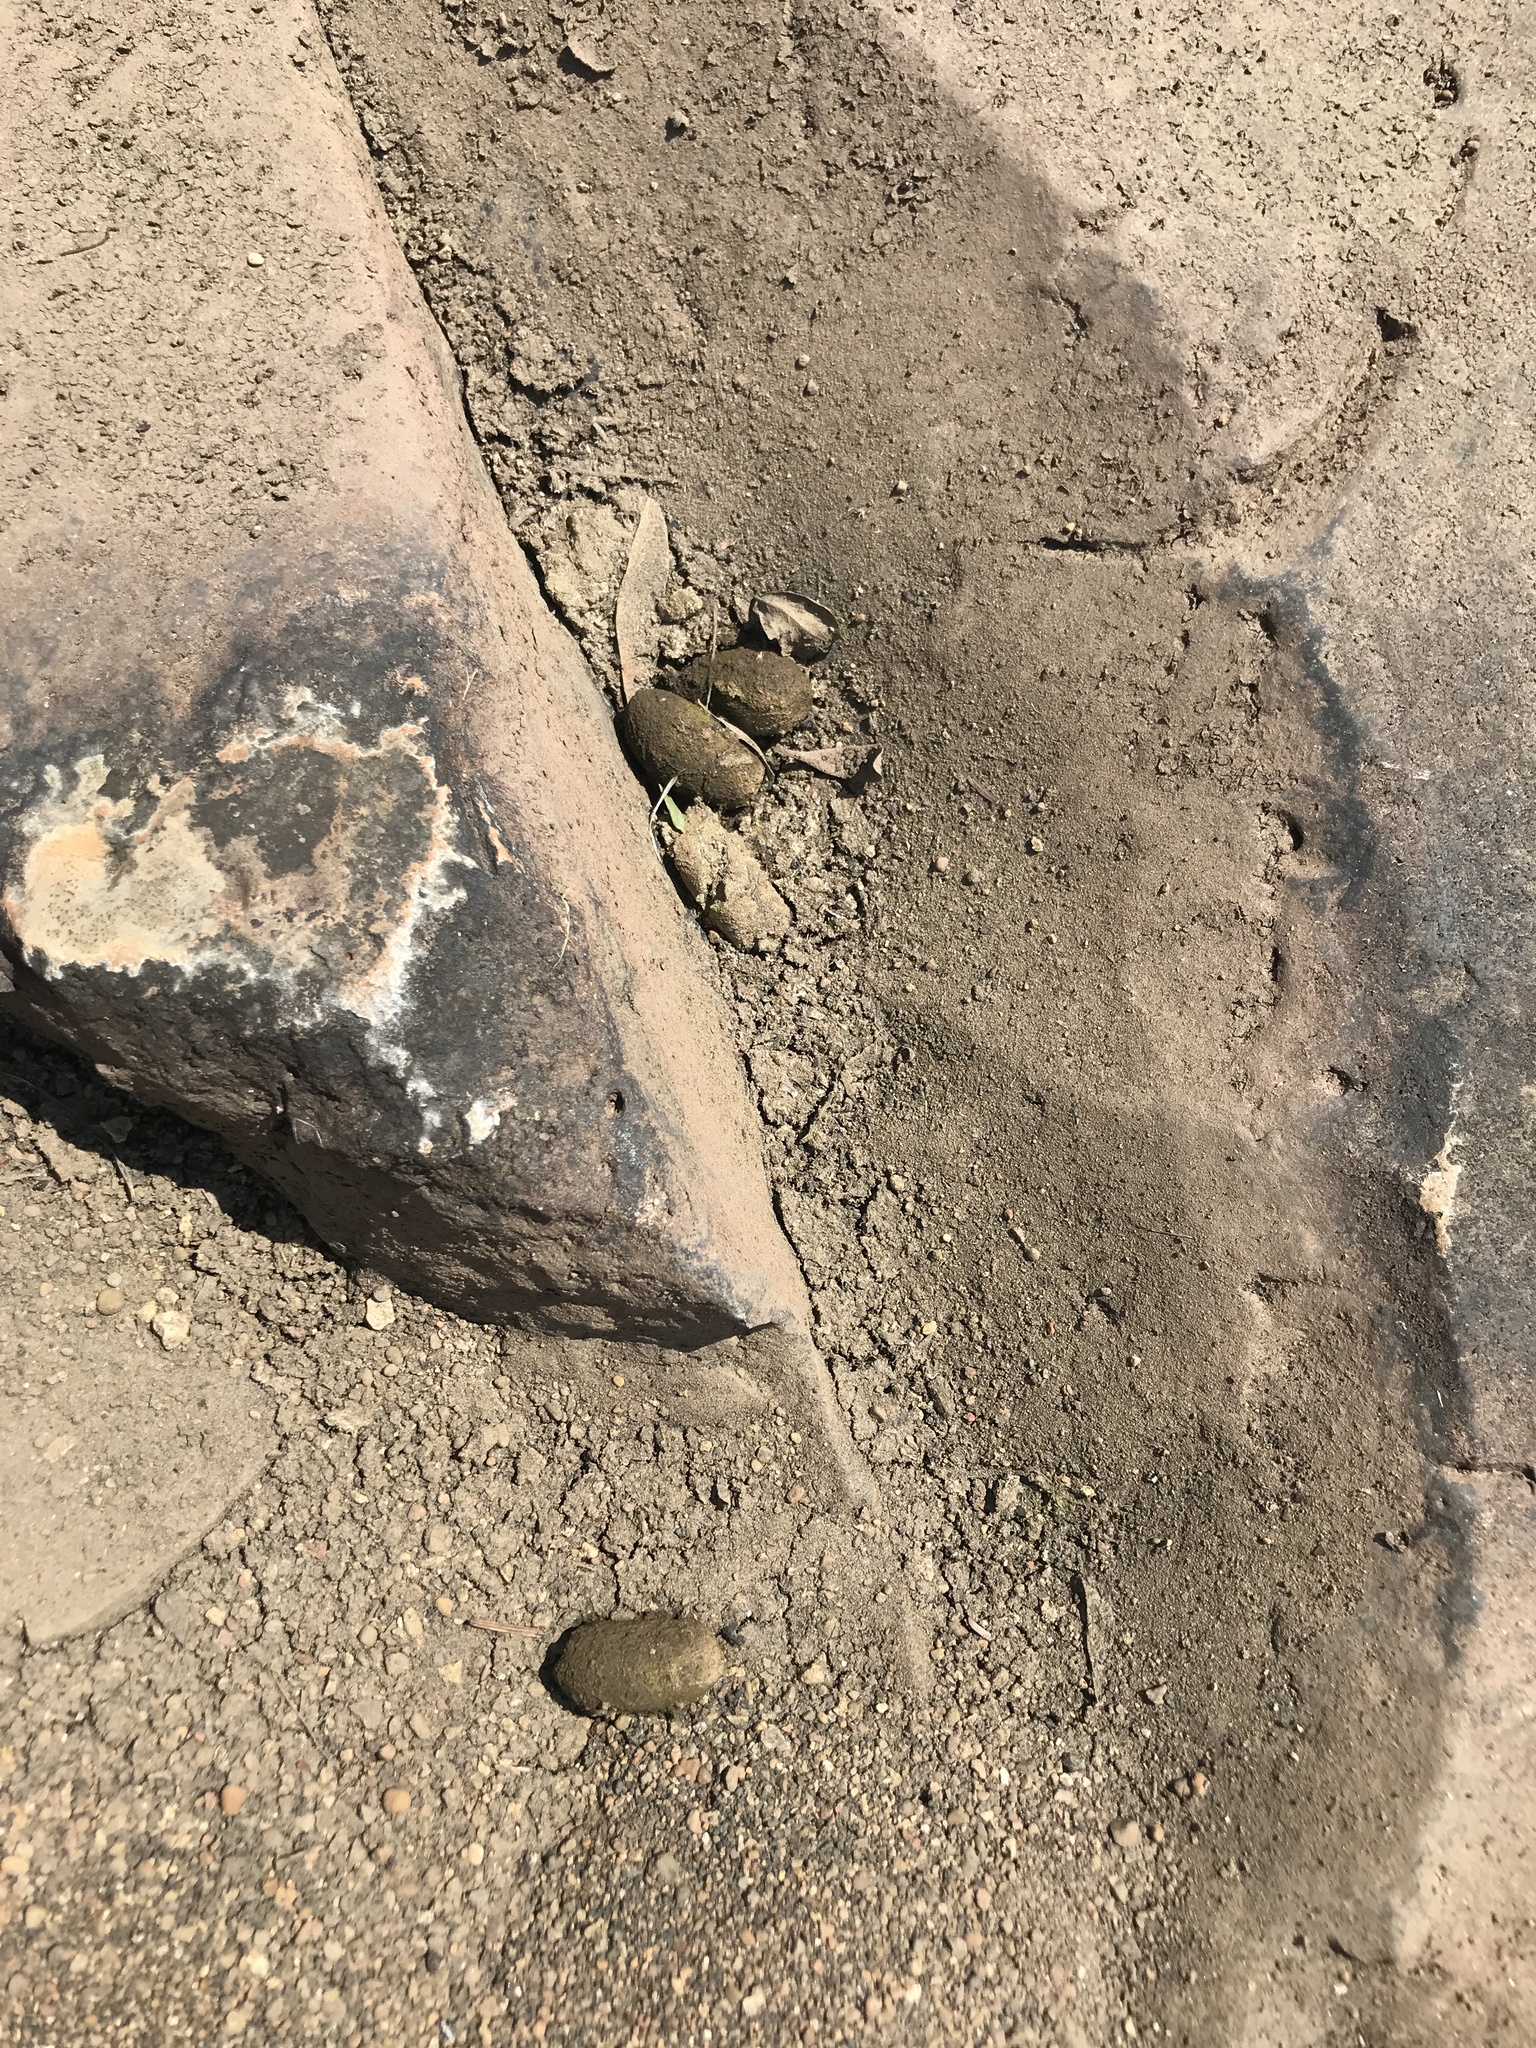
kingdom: Animalia
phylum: Chordata
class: Mammalia
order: Rodentia
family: Caviidae
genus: Hydrochoerus
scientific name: Hydrochoerus hydrochaeris
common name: Capybara
